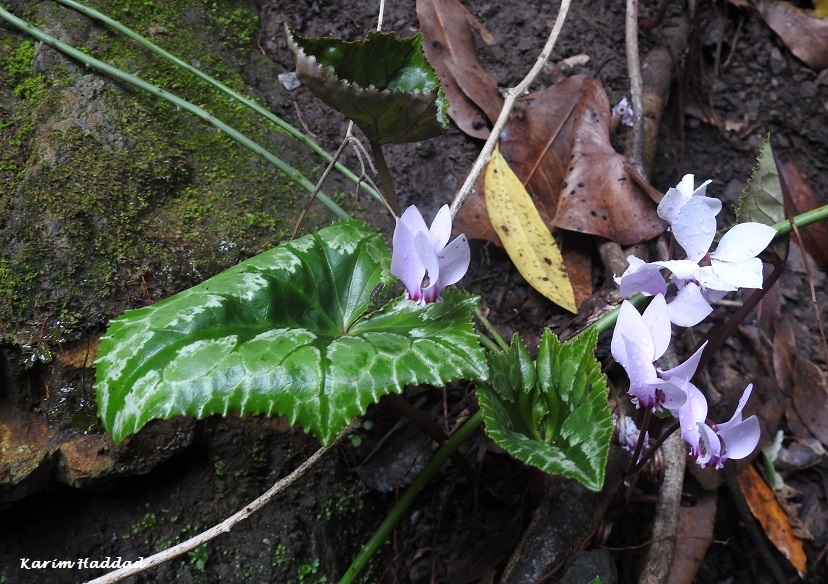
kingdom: Plantae
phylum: Tracheophyta
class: Magnoliopsida
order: Ericales
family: Primulaceae
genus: Cyclamen
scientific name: Cyclamen africanum
